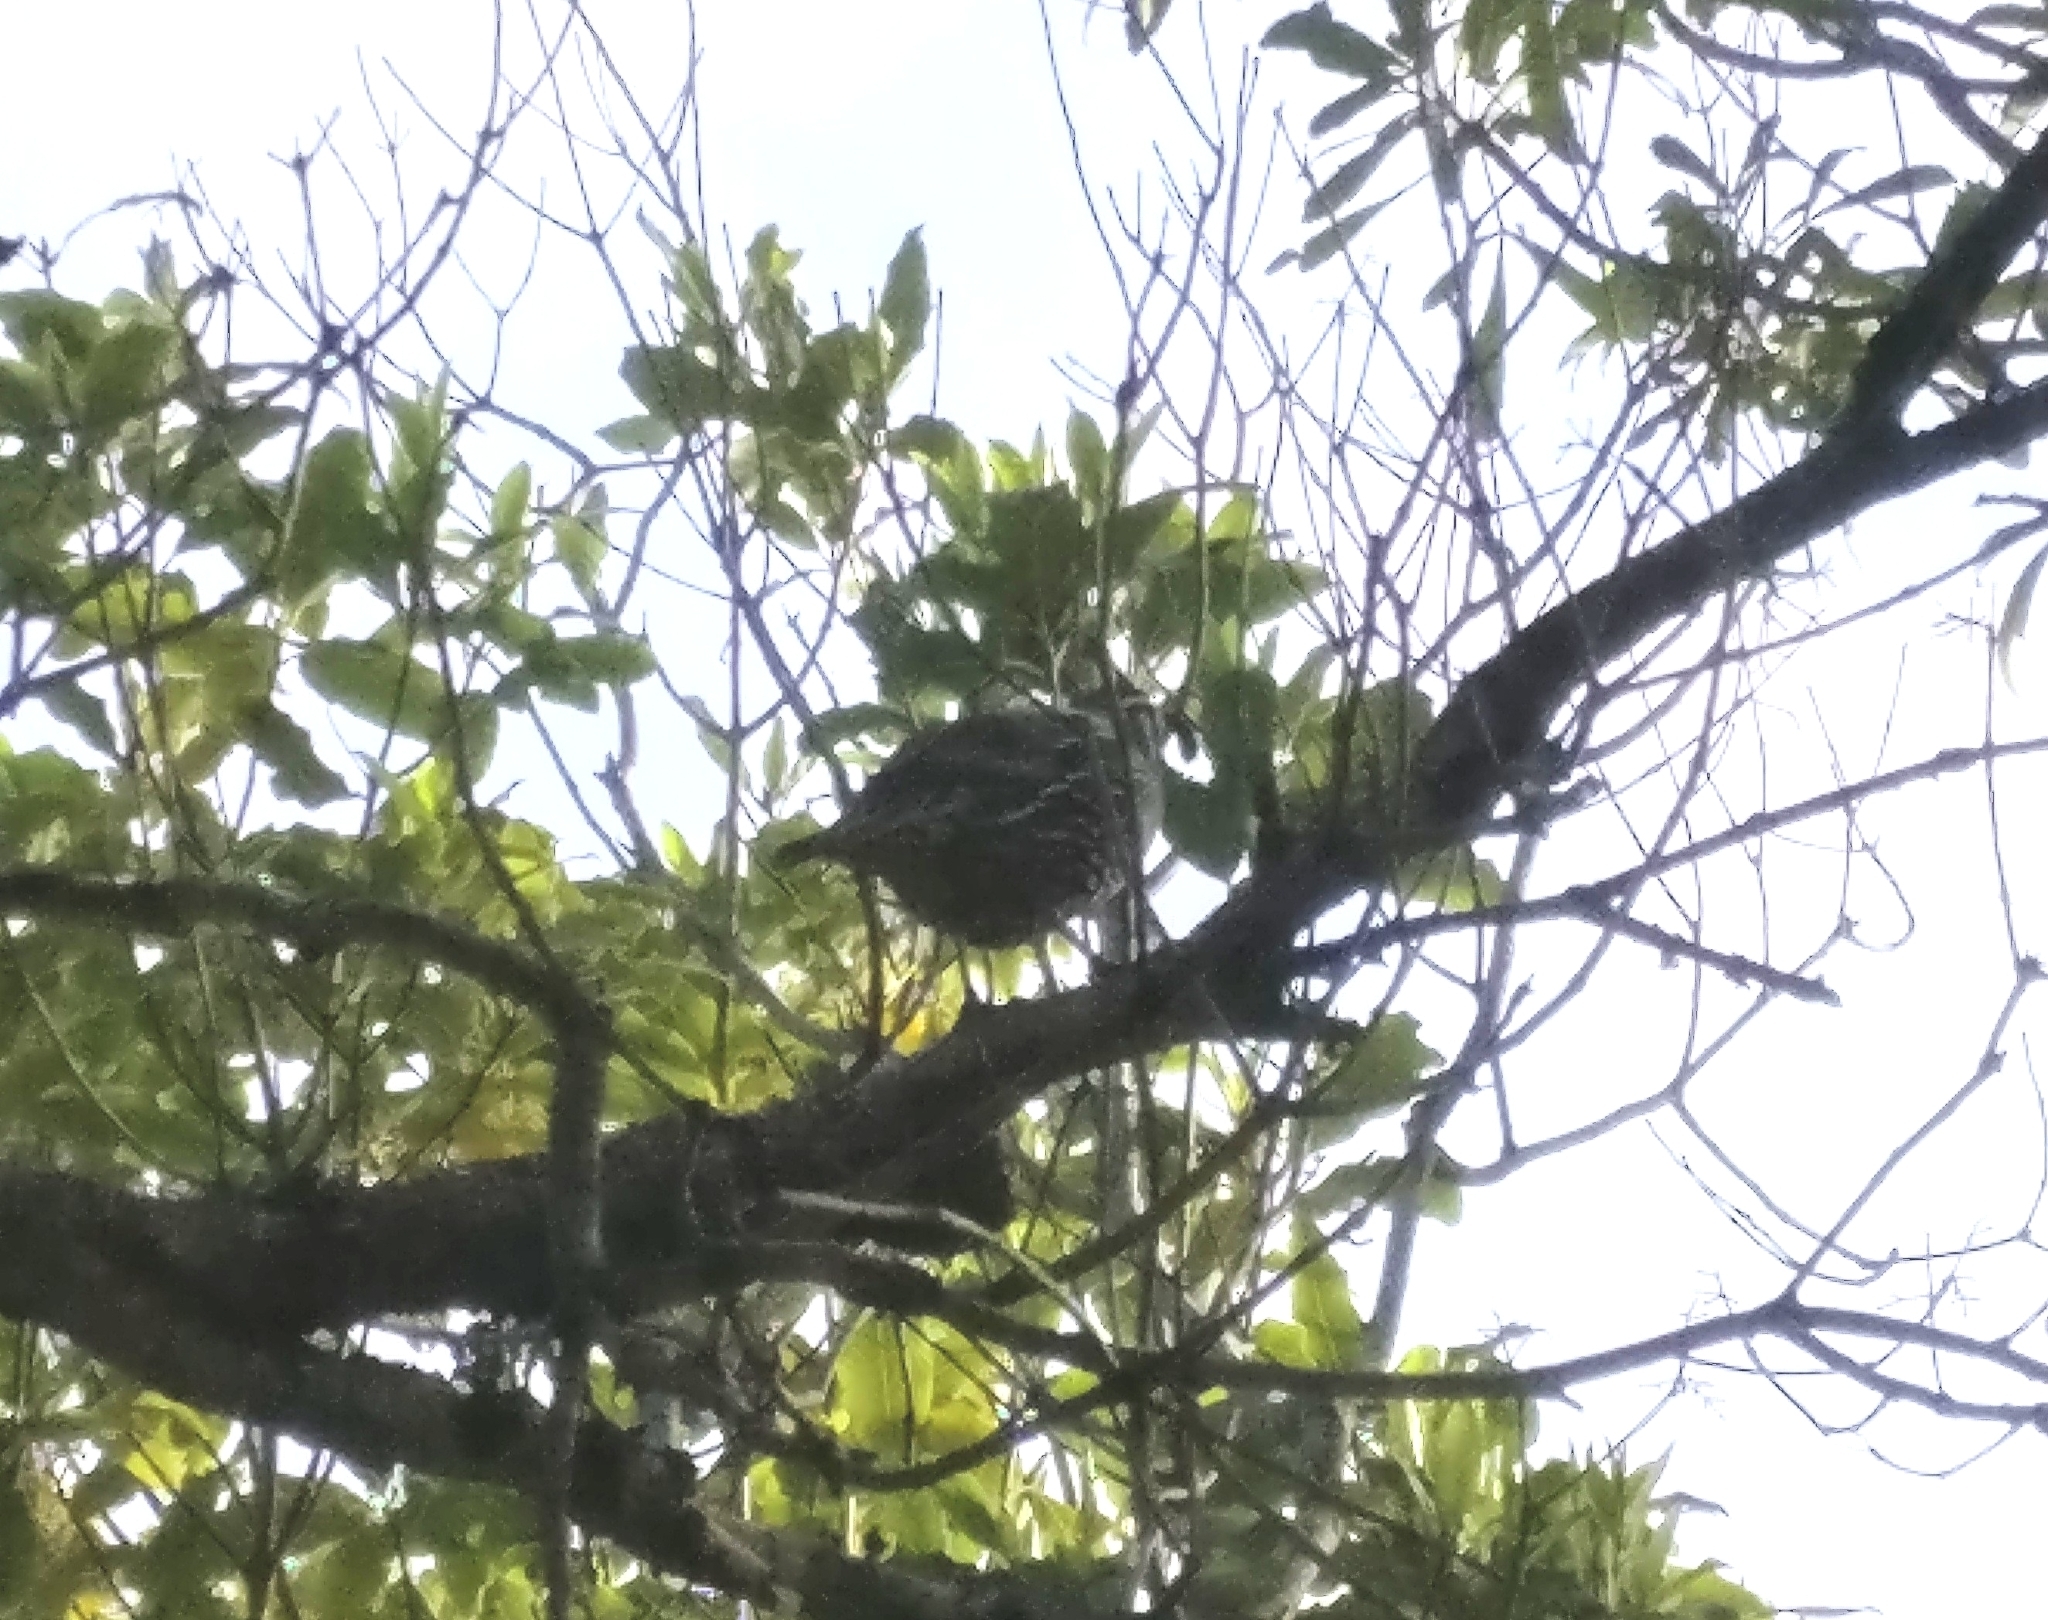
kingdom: Animalia
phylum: Chordata
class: Aves
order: Galliformes
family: Odontophoridae
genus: Callipepla
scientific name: Callipepla californica
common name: California quail
